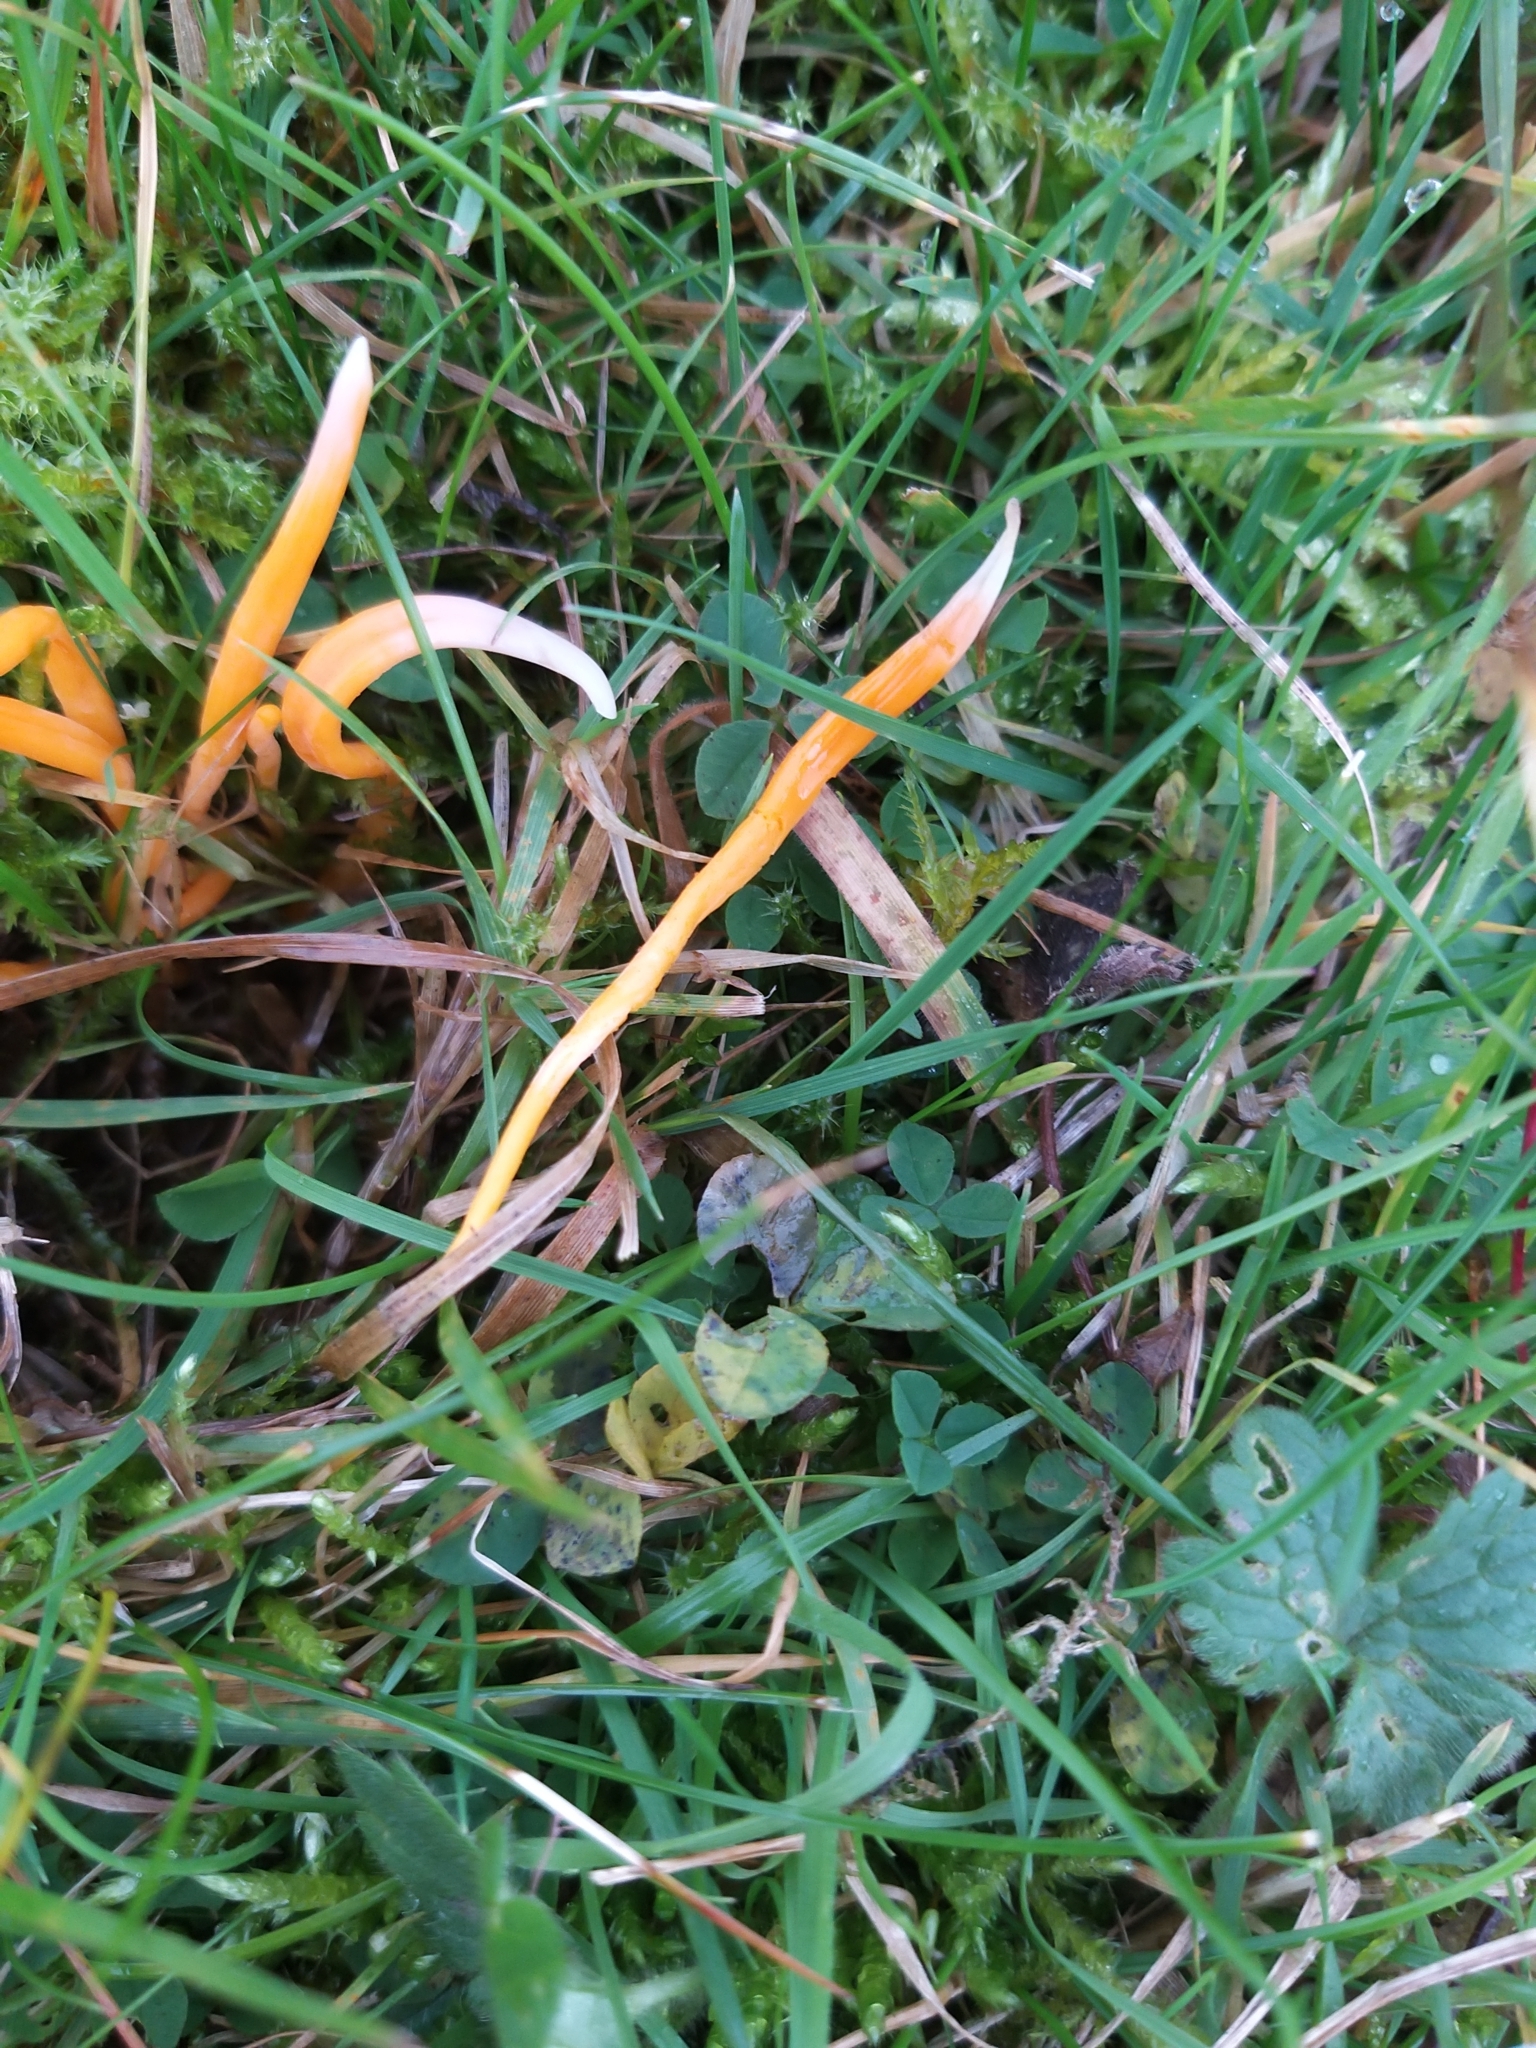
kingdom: Fungi
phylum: Basidiomycota
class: Agaricomycetes
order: Agaricales
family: Clavariaceae
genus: Clavulinopsis
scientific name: Clavulinopsis luteoalba
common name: Apricot club
